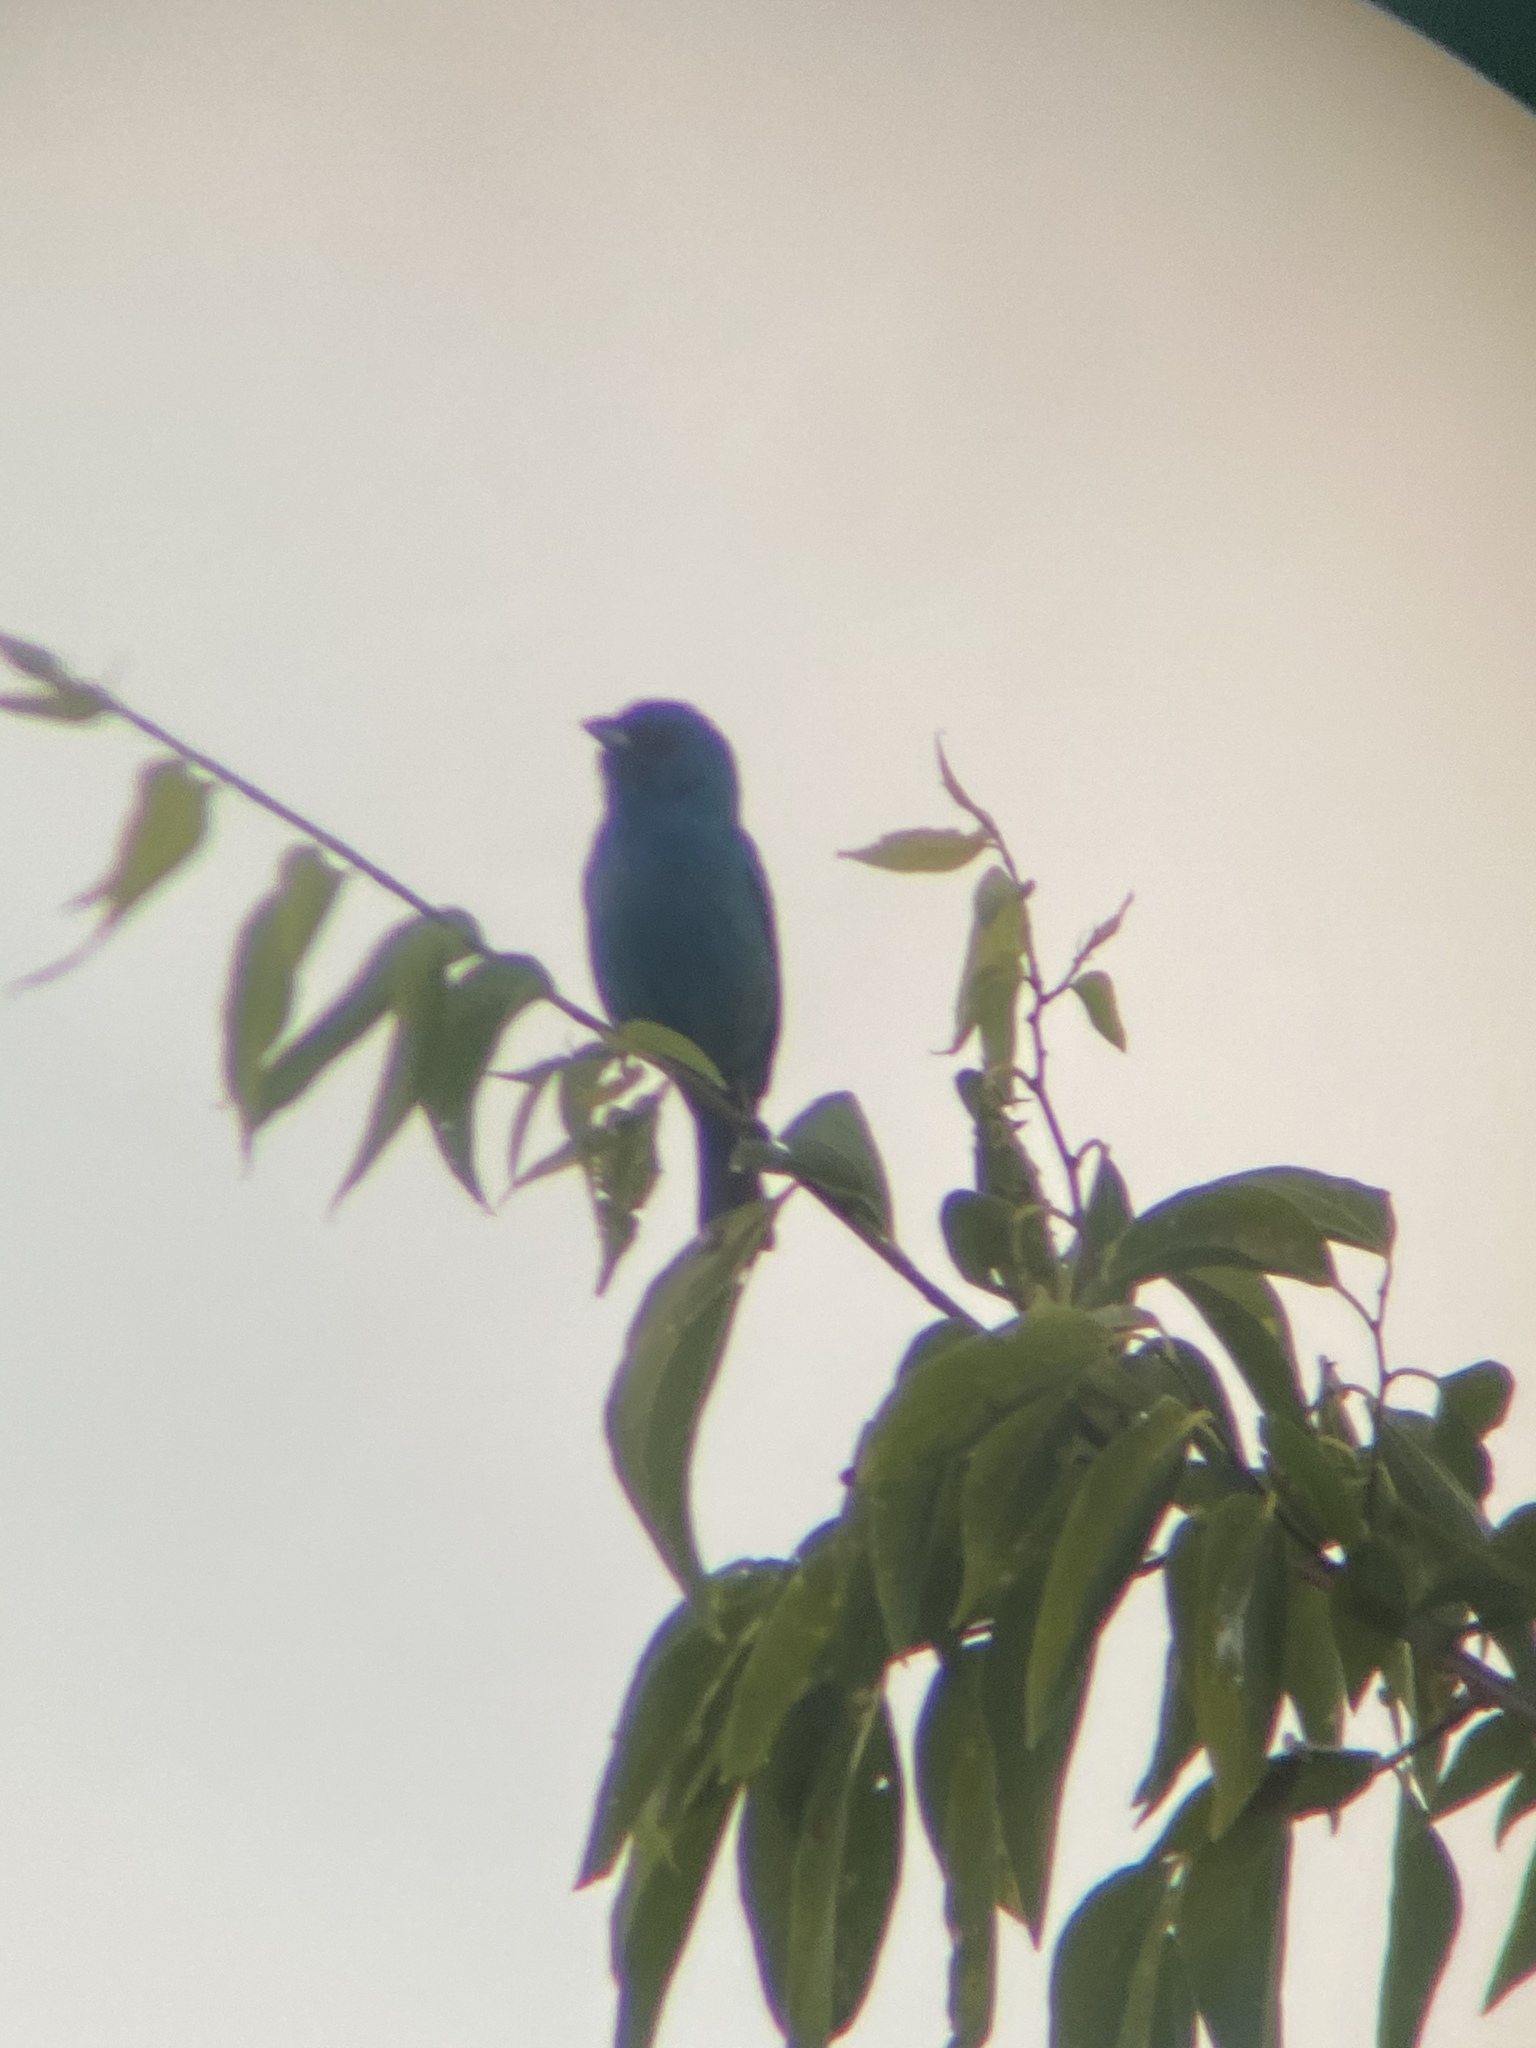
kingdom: Animalia
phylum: Chordata
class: Aves
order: Passeriformes
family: Cardinalidae
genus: Passerina
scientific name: Passerina cyanea
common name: Indigo bunting
